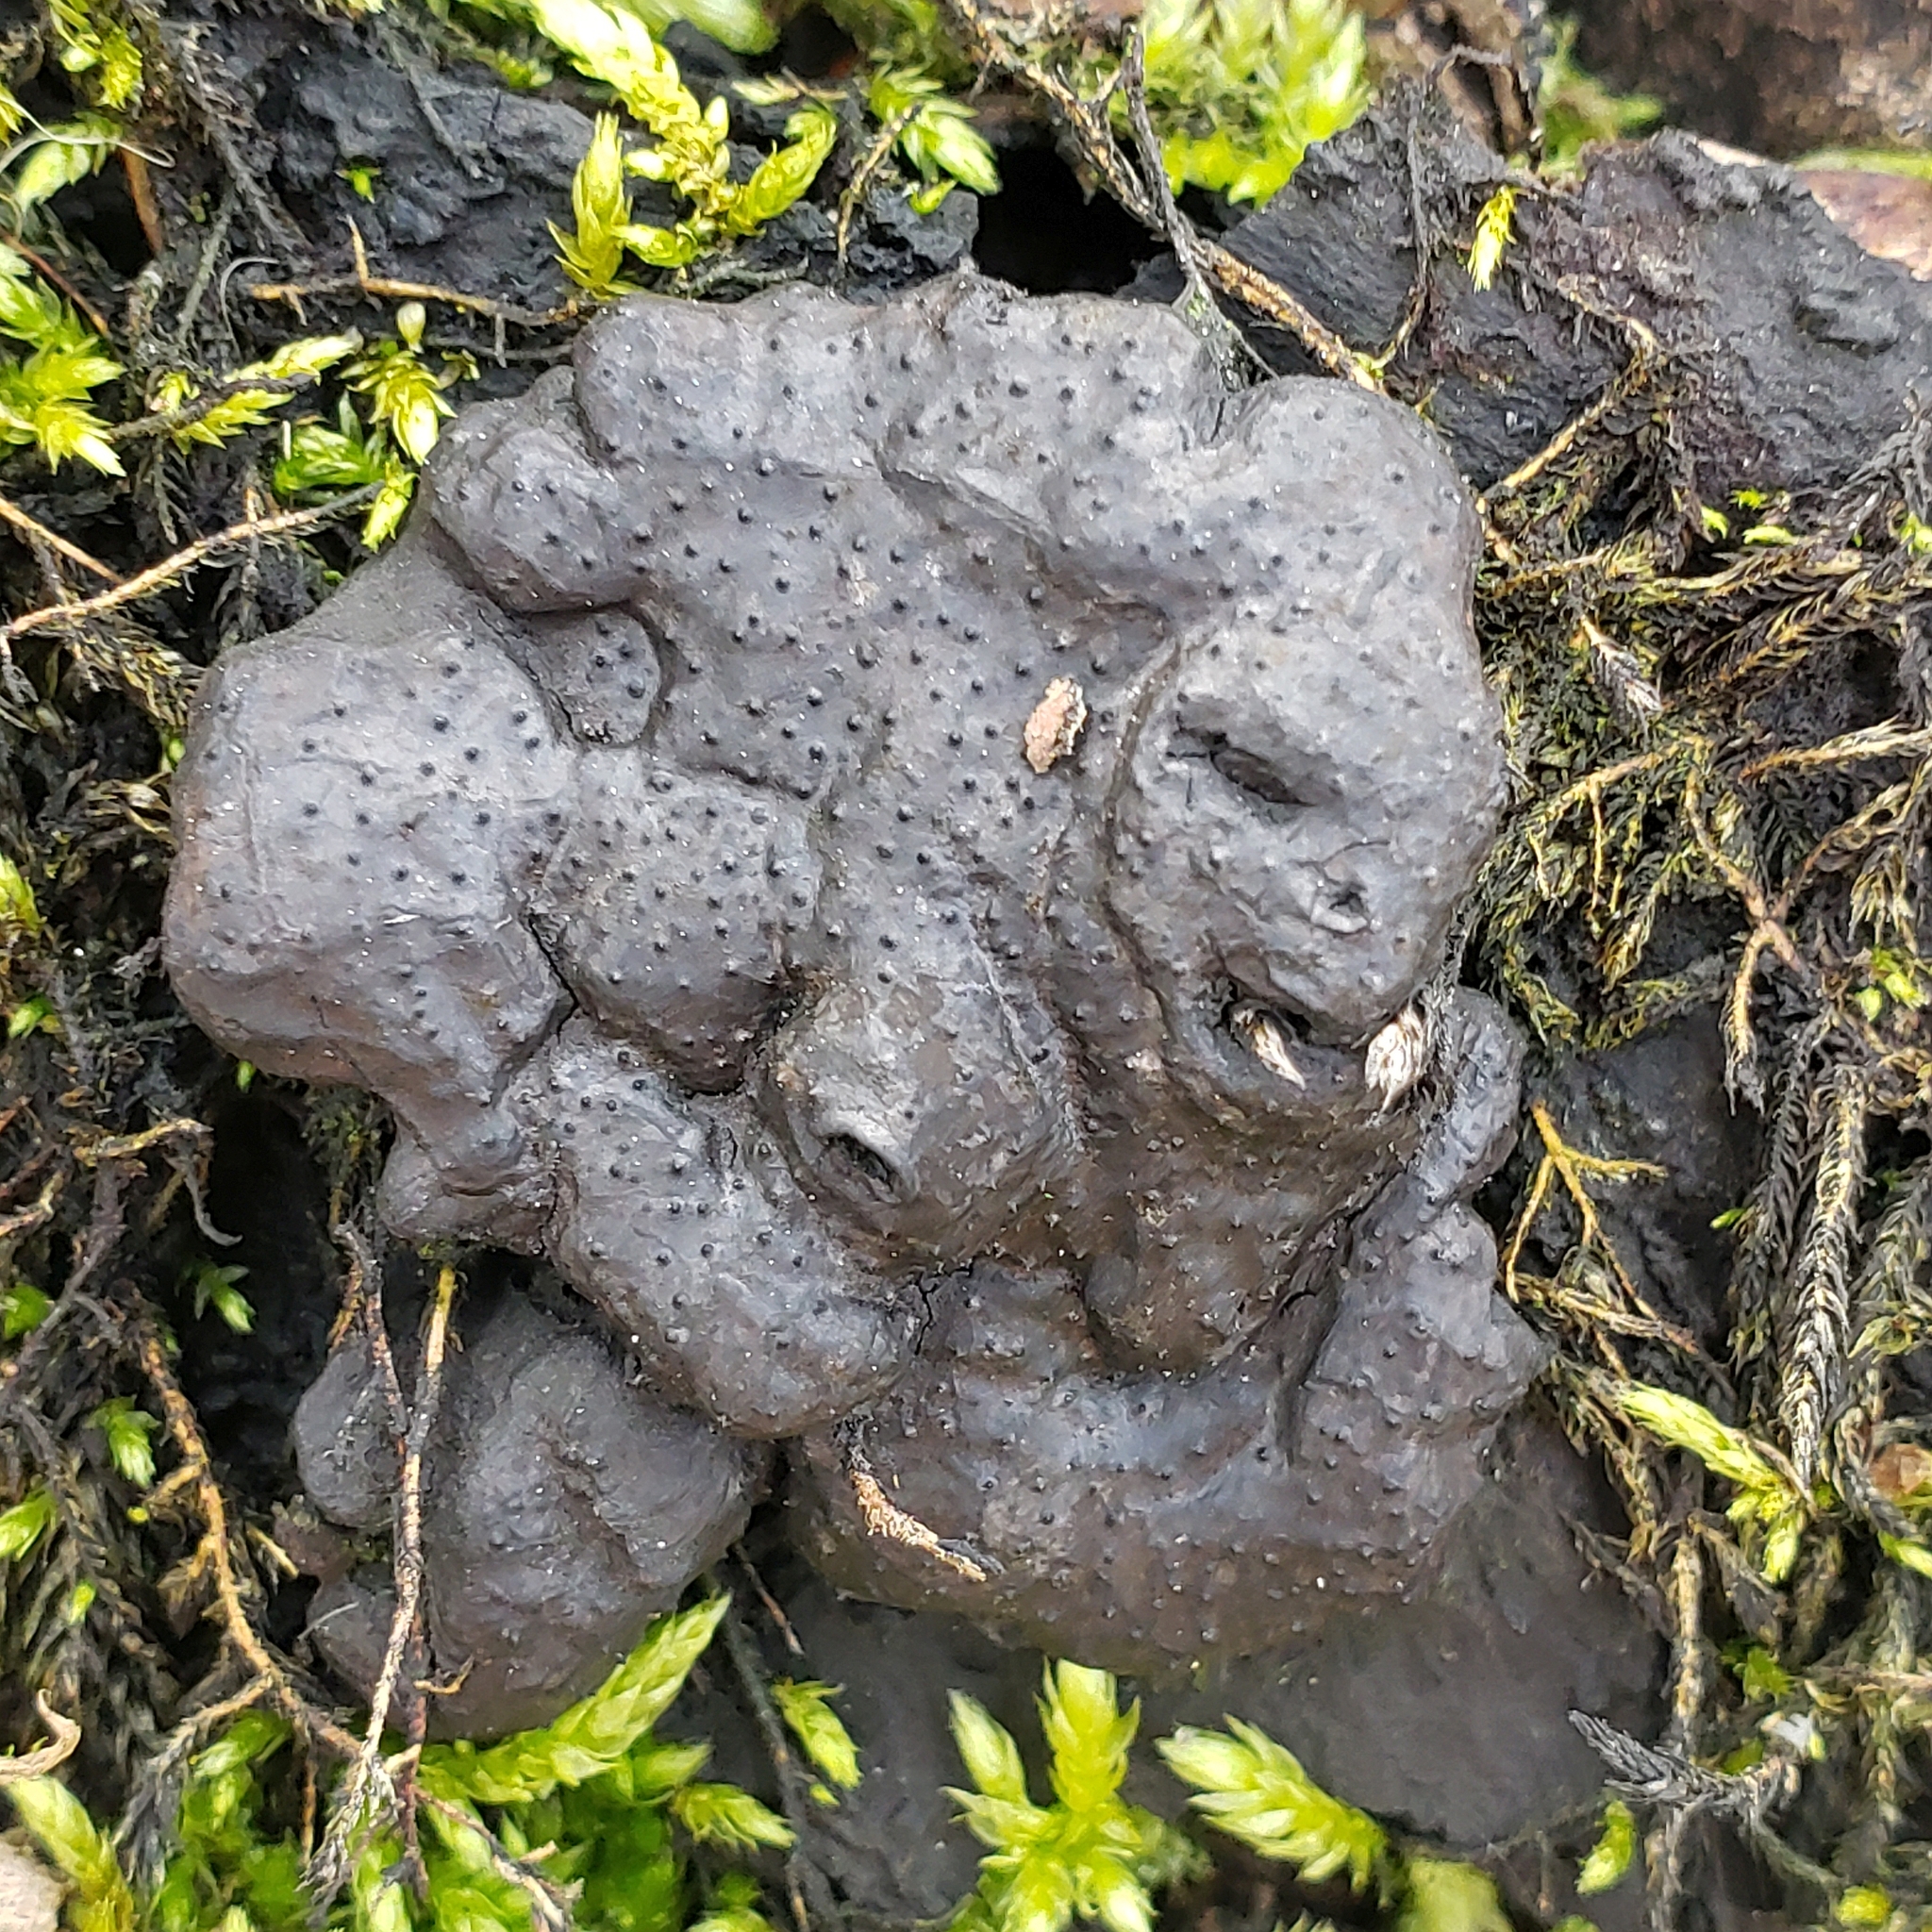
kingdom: Fungi
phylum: Ascomycota
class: Sordariomycetes
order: Xylariales
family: Xylariaceae
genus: Kretzschmaria
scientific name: Kretzschmaria deusta
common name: Brittle cinder
